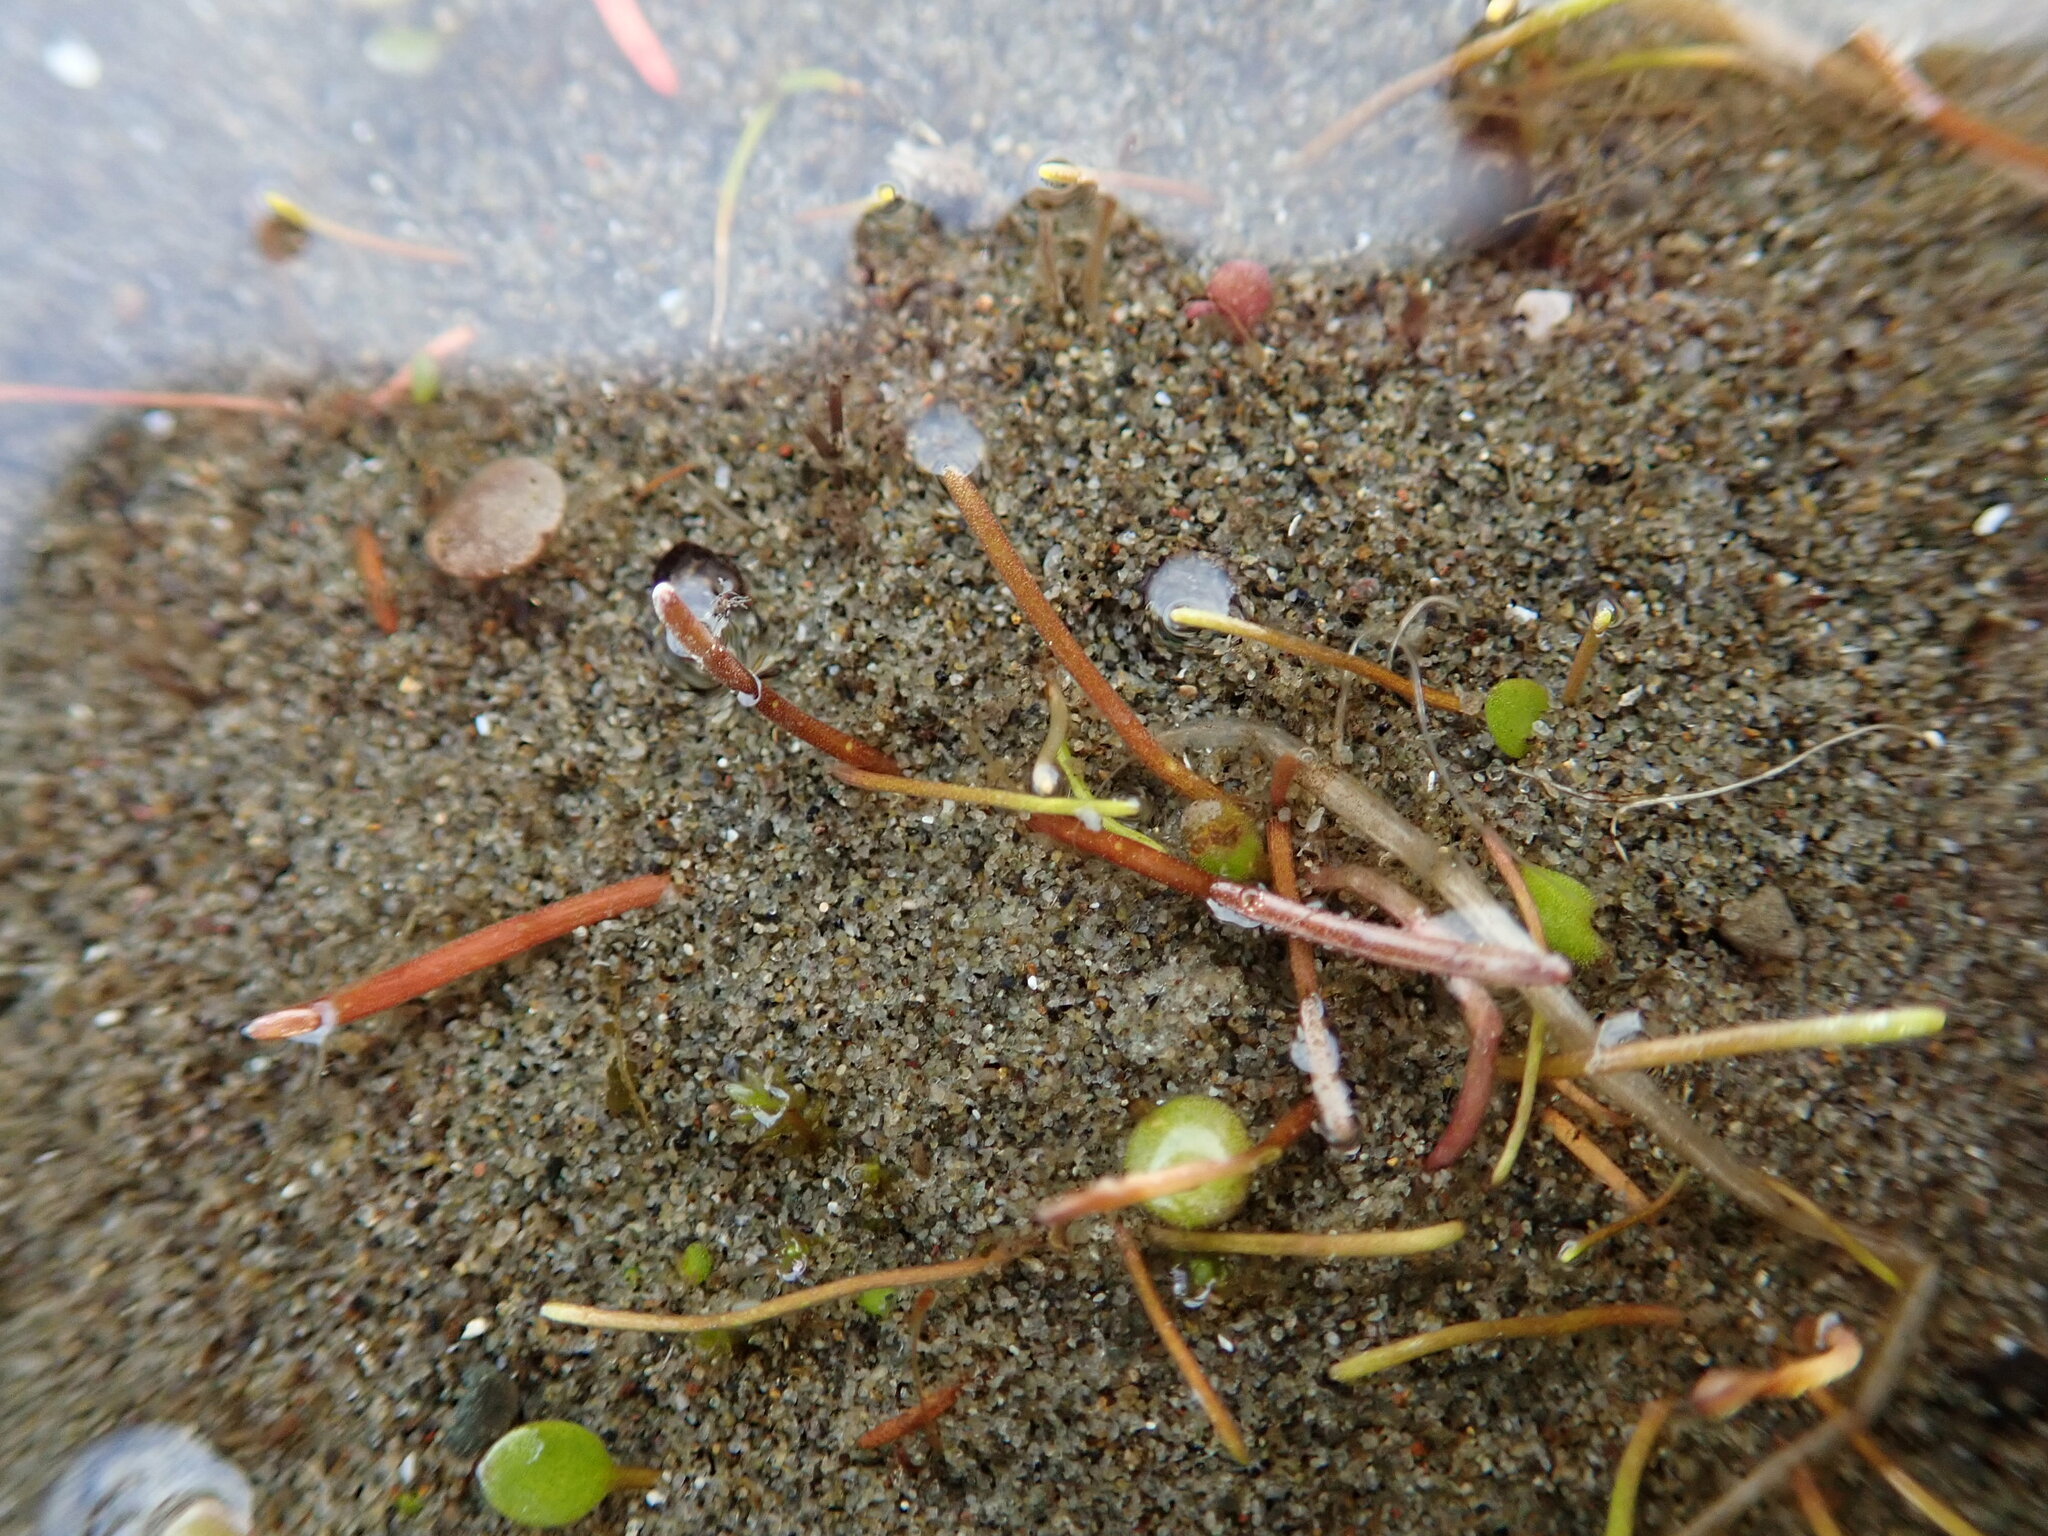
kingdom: Plantae
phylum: Tracheophyta
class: Magnoliopsida
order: Lamiales
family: Scrophulariaceae
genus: Limosella
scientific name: Limosella australis
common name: Welsh mudwort
